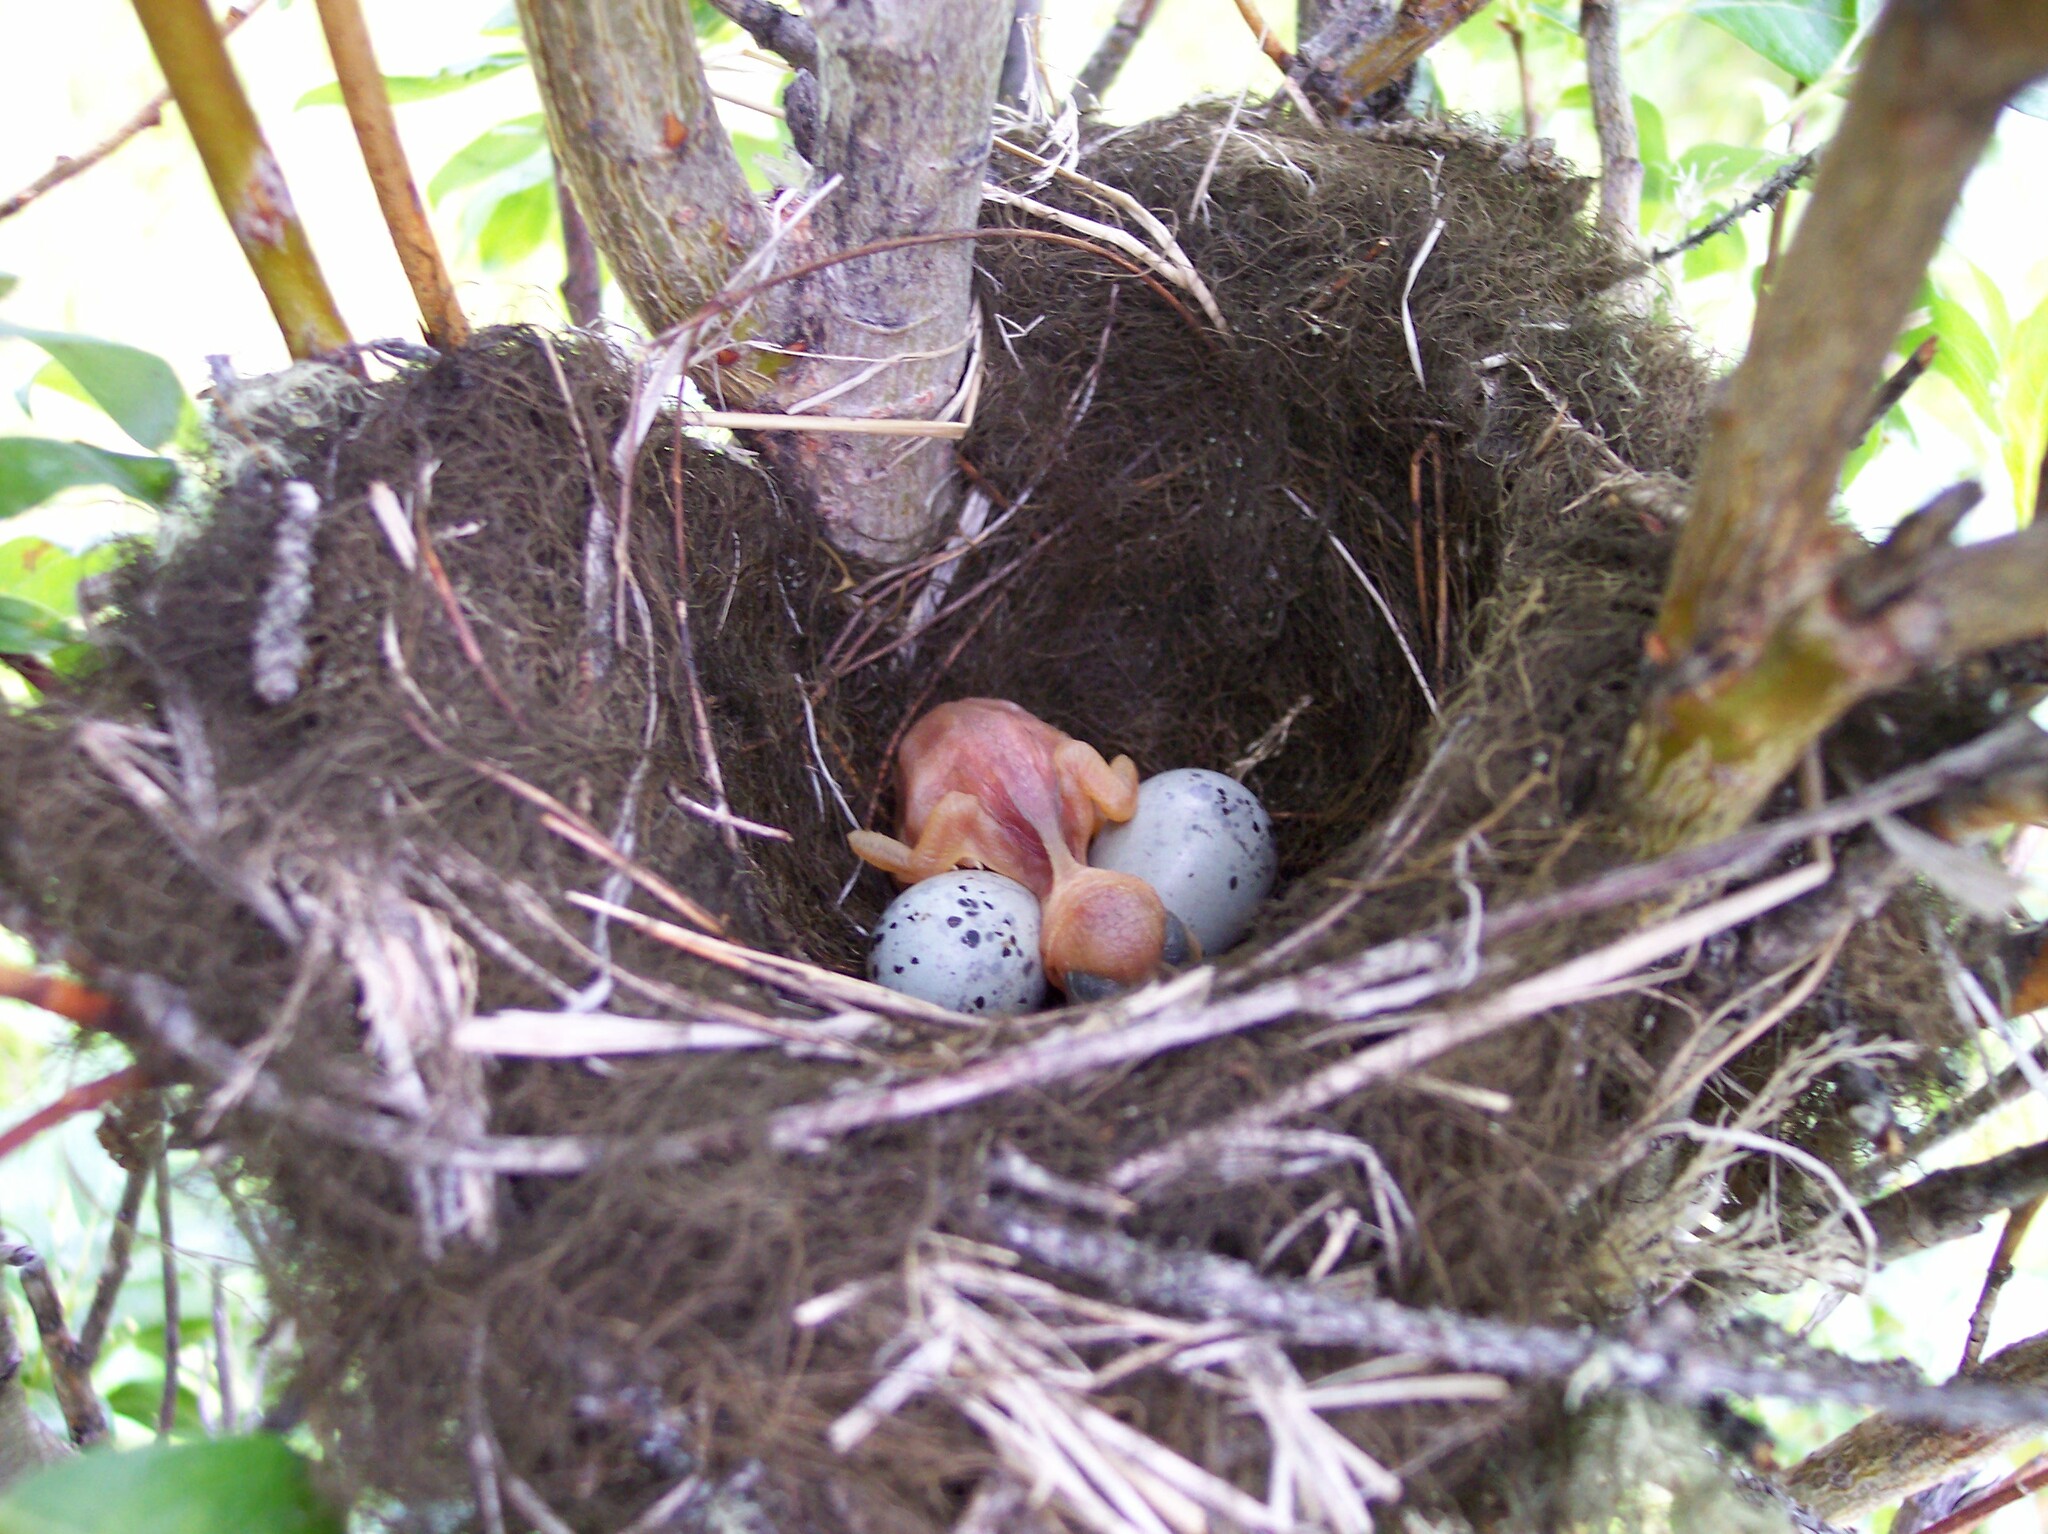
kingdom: Animalia
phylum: Chordata
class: Aves
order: Passeriformes
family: Bombycillidae
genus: Bombycilla
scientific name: Bombycilla cedrorum
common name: Cedar waxwing
